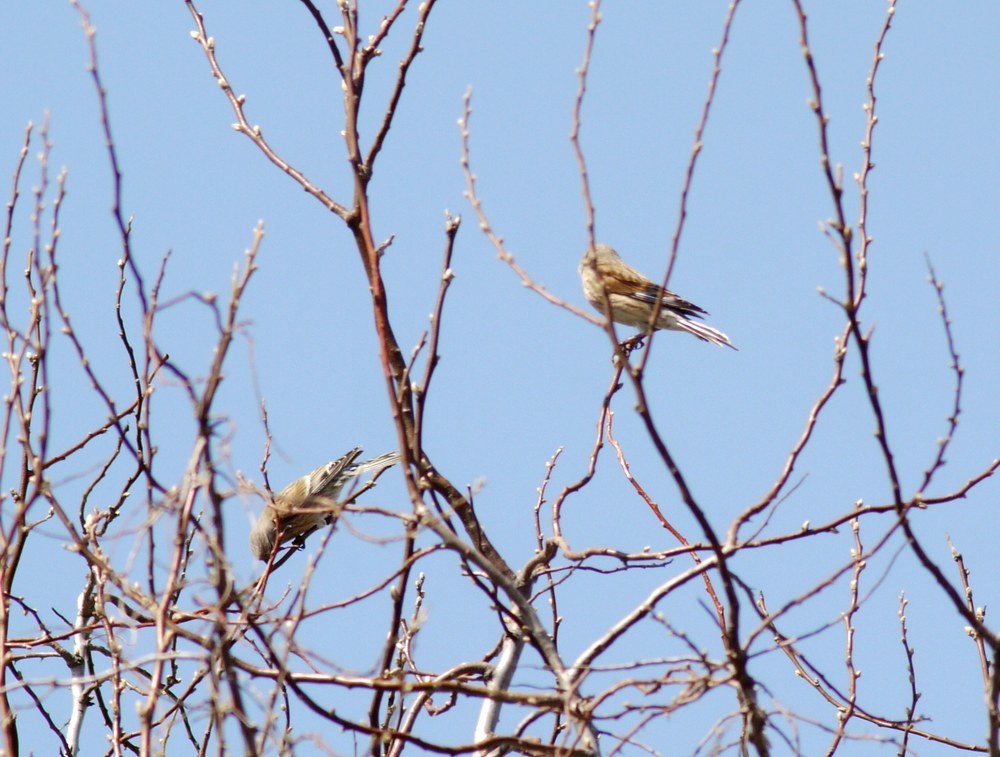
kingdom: Animalia
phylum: Chordata
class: Aves
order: Passeriformes
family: Fringillidae
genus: Linaria
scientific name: Linaria cannabina
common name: Common linnet
